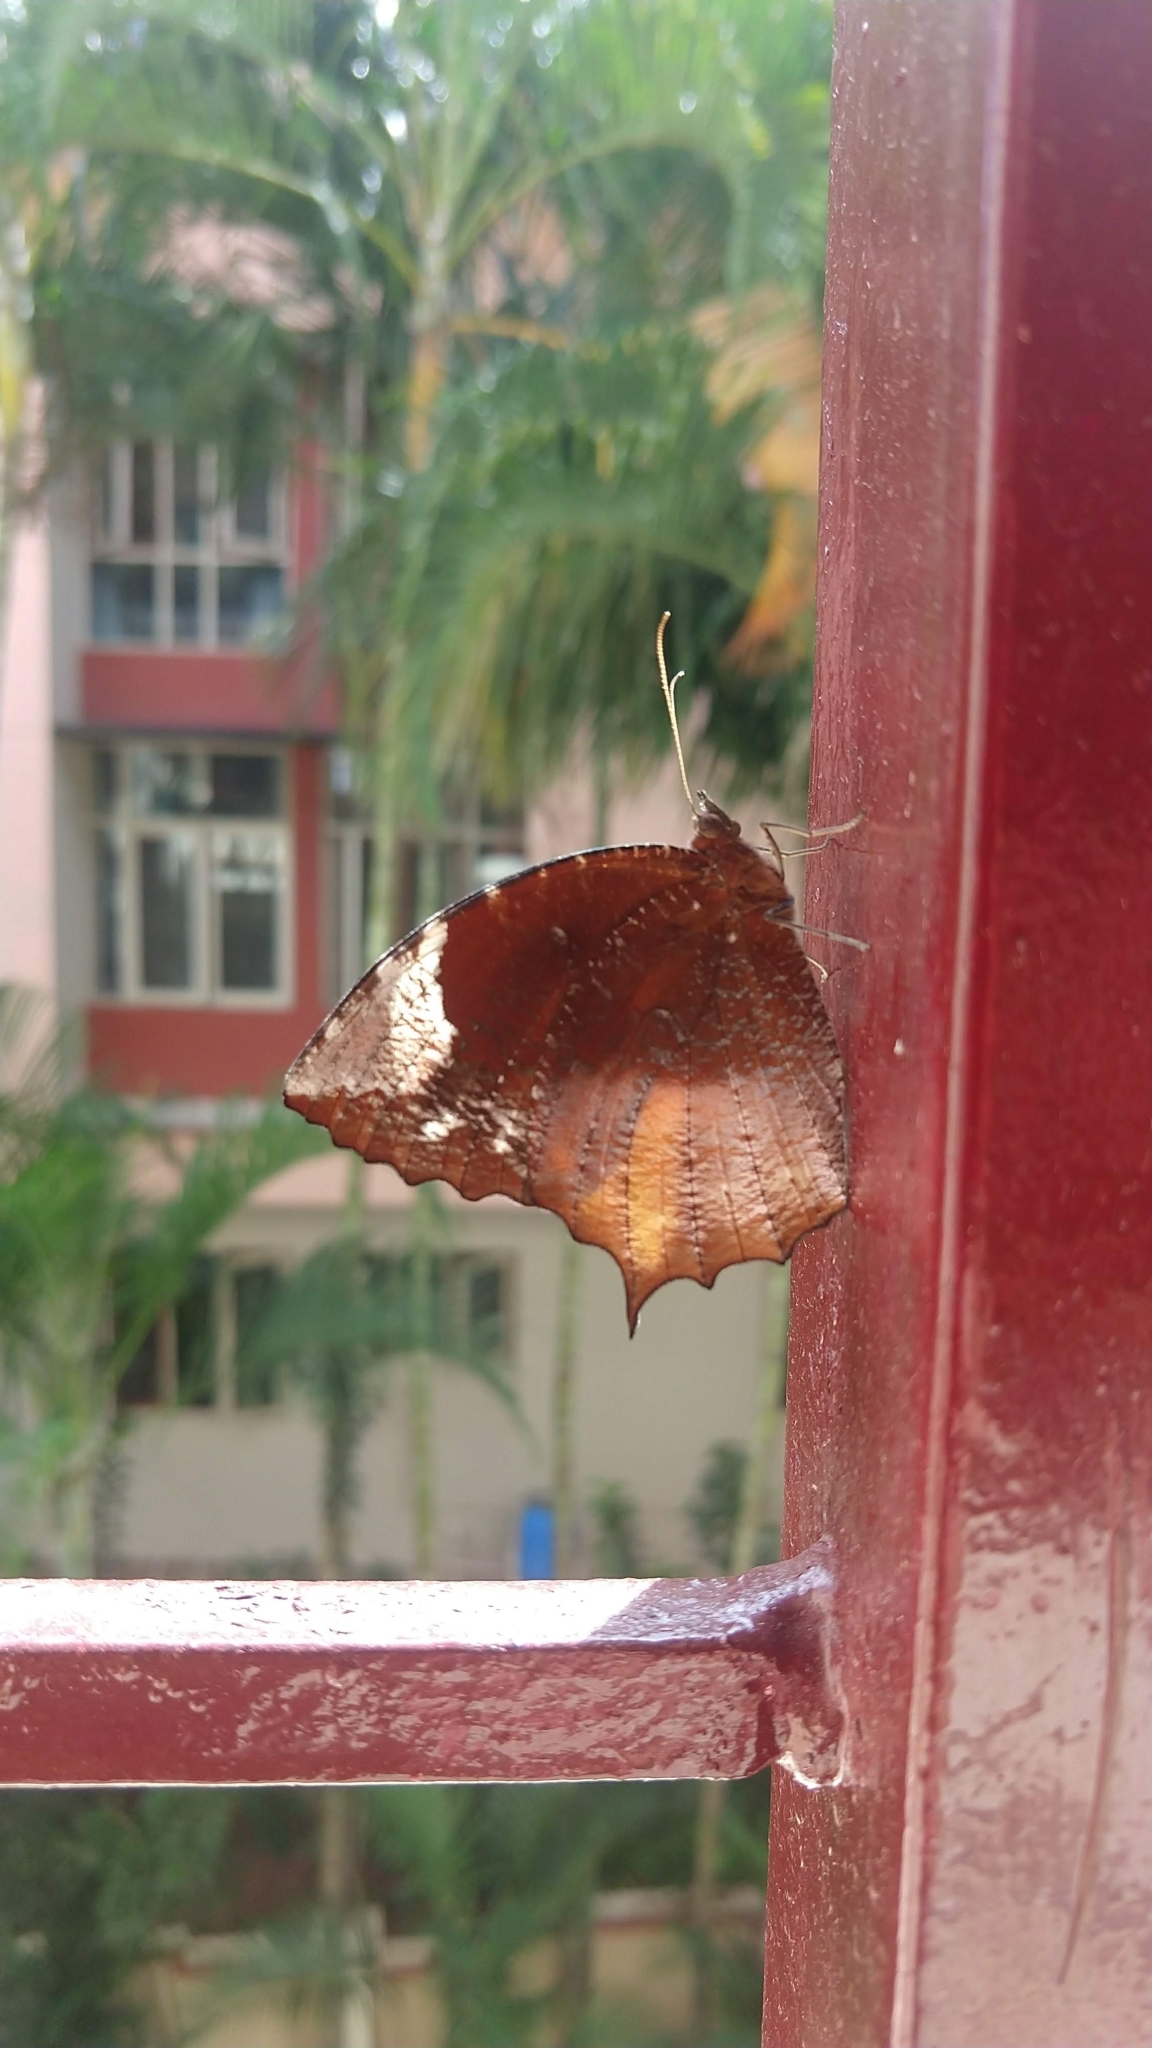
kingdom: Animalia
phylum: Arthropoda
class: Insecta
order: Lepidoptera
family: Nymphalidae
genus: Elymnias
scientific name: Elymnias caudata
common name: Tailed palmfly
